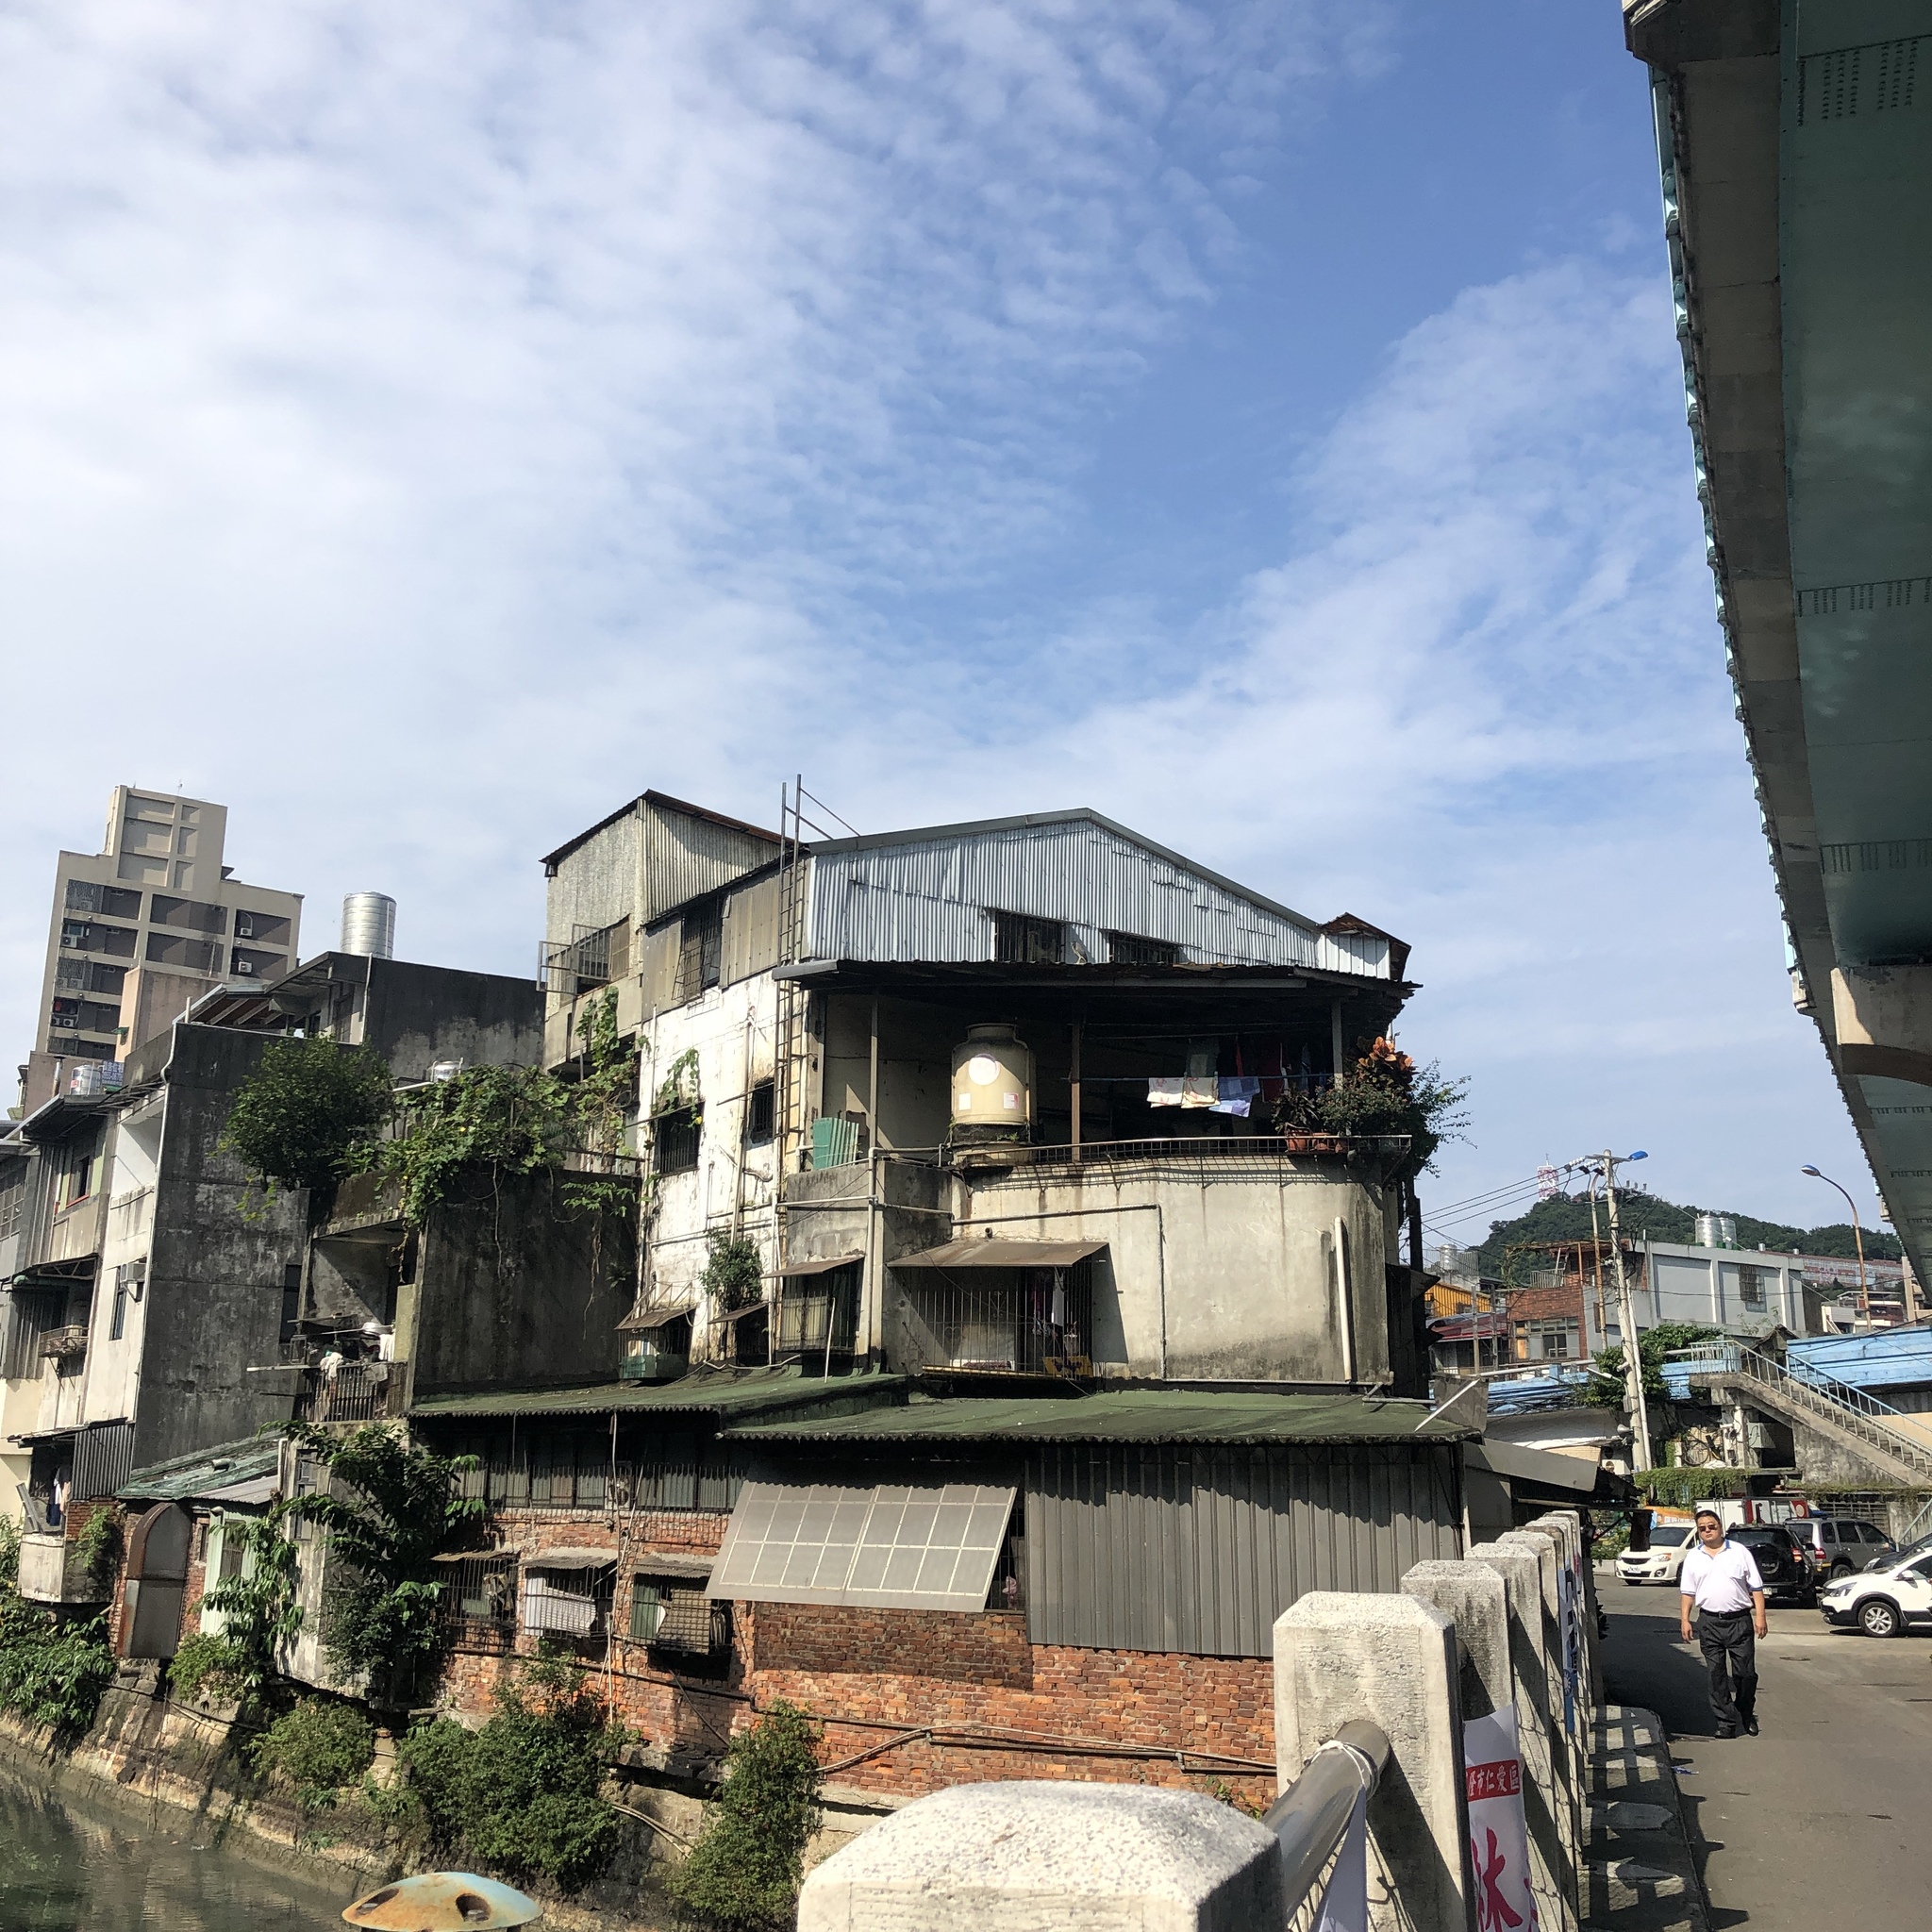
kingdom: Animalia
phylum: Chordata
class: Aves
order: Pelecaniformes
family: Ardeidae
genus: Nycticorax
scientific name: Nycticorax nycticorax
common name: Black-crowned night heron
